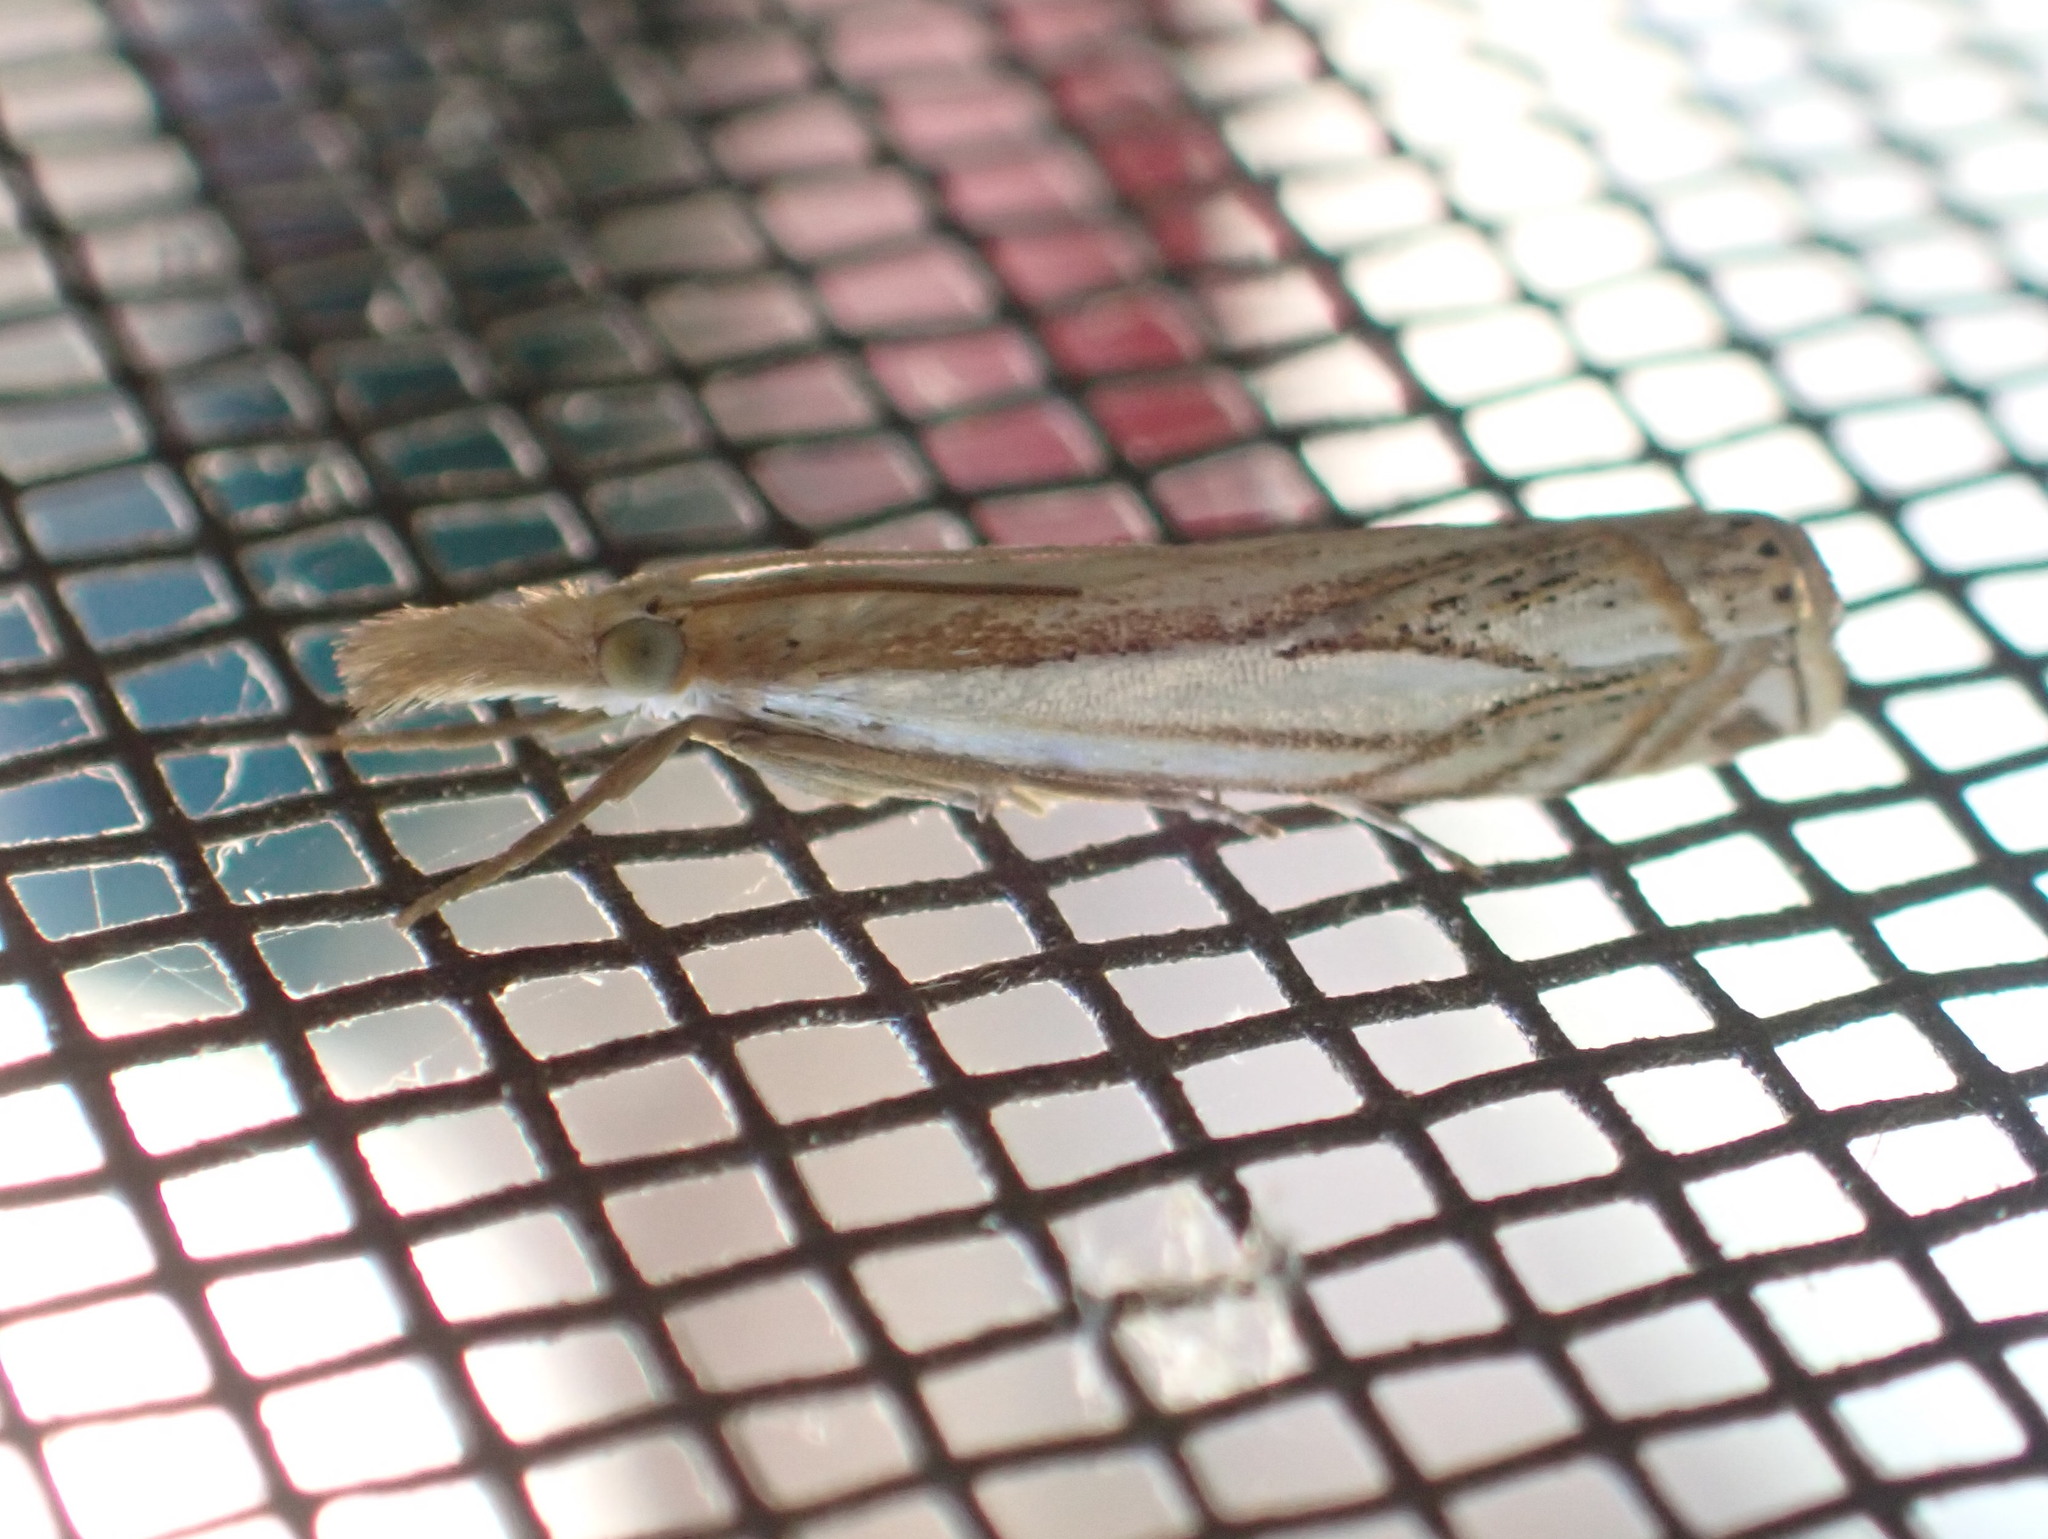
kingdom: Animalia
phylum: Arthropoda
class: Insecta
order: Lepidoptera
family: Crambidae
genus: Crambus
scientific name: Crambus saltuellus
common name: Pasture grass-veneer
